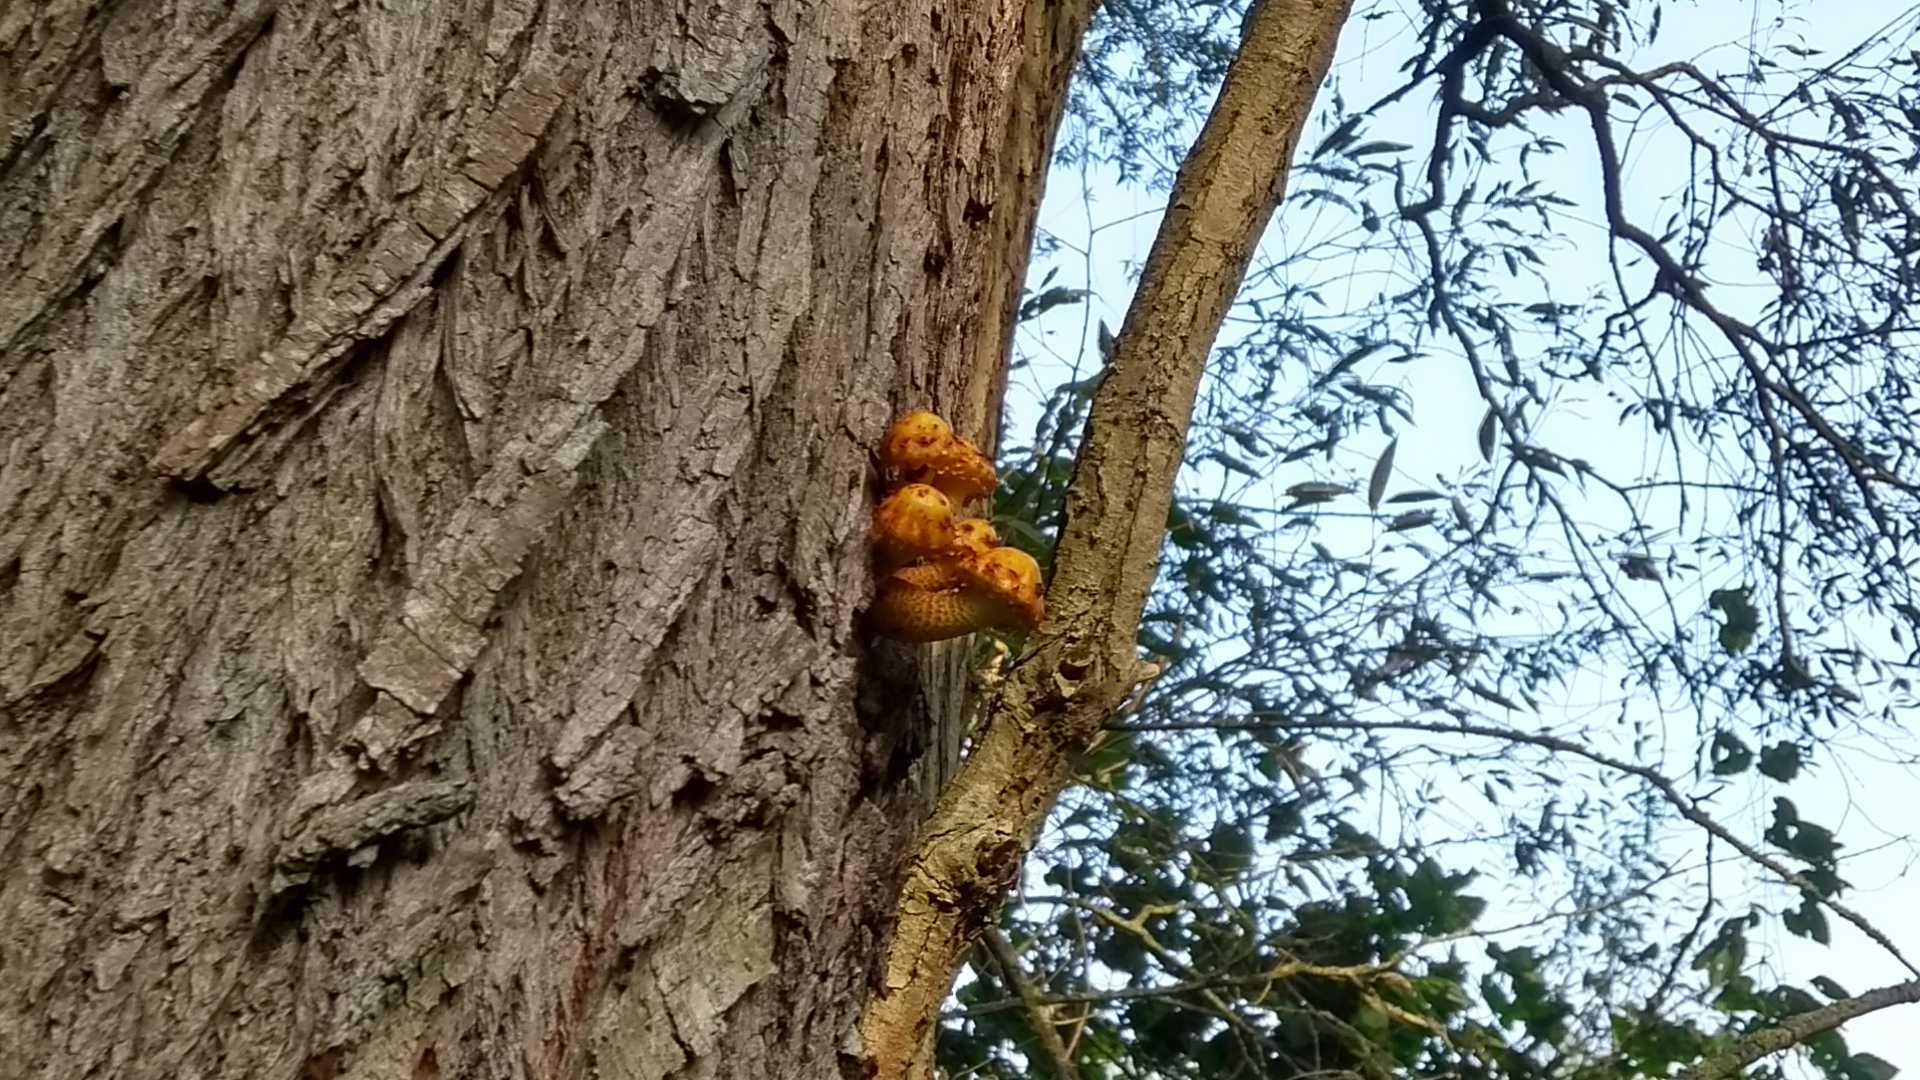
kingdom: Fungi
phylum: Basidiomycota
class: Agaricomycetes
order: Agaricales
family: Strophariaceae
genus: Pholiota
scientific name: Pholiota aurivella
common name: Golden scalycap
